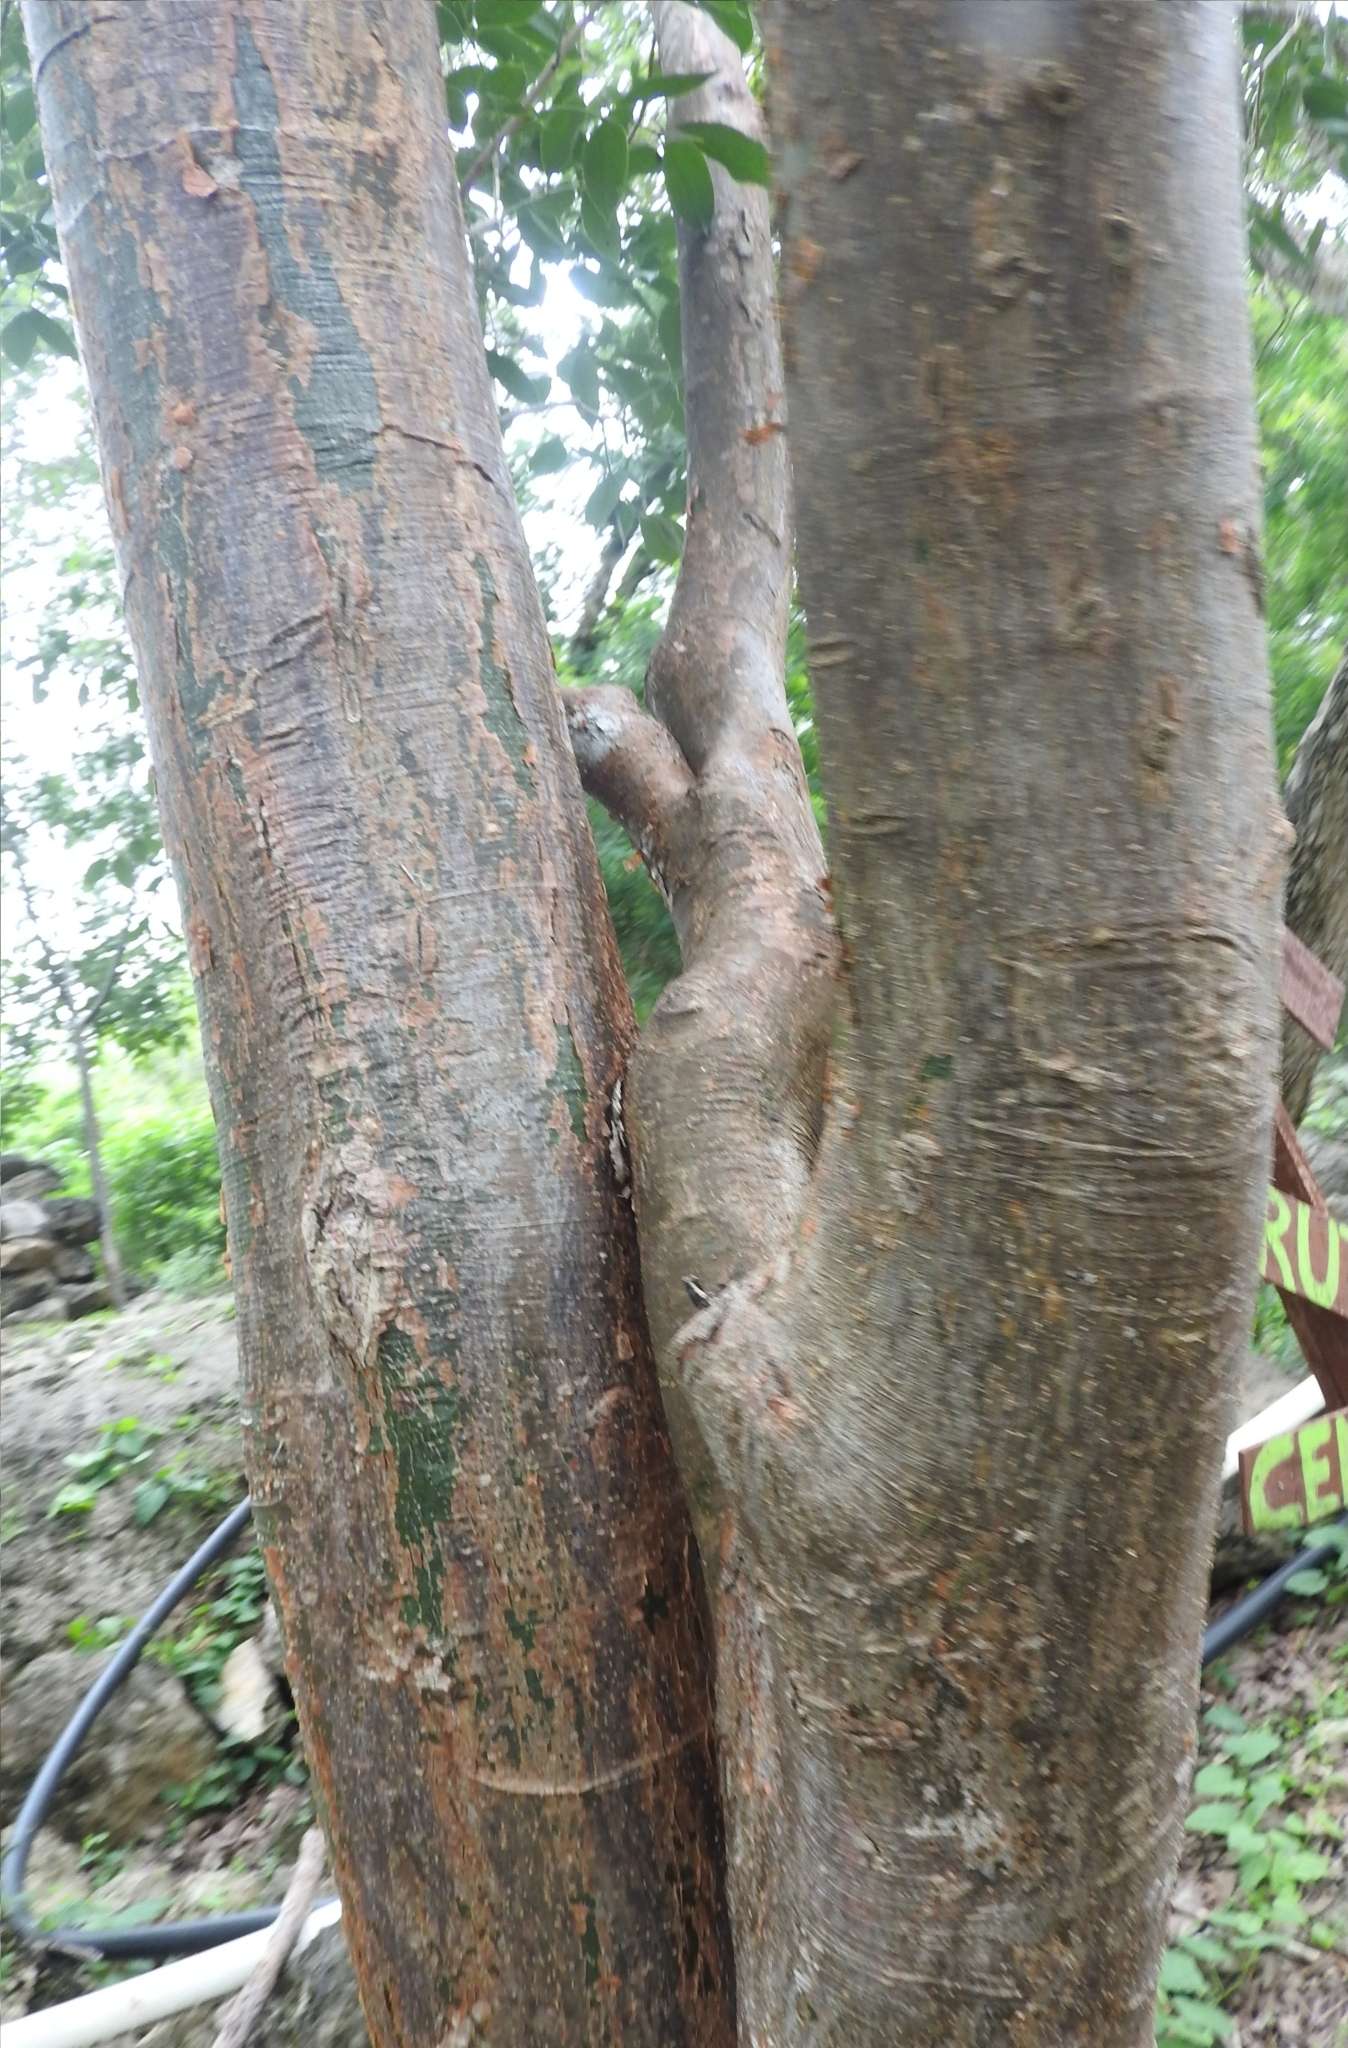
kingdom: Plantae
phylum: Tracheophyta
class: Magnoliopsida
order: Sapindales
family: Burseraceae
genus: Bursera
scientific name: Bursera simaruba
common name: Turpentine tree
